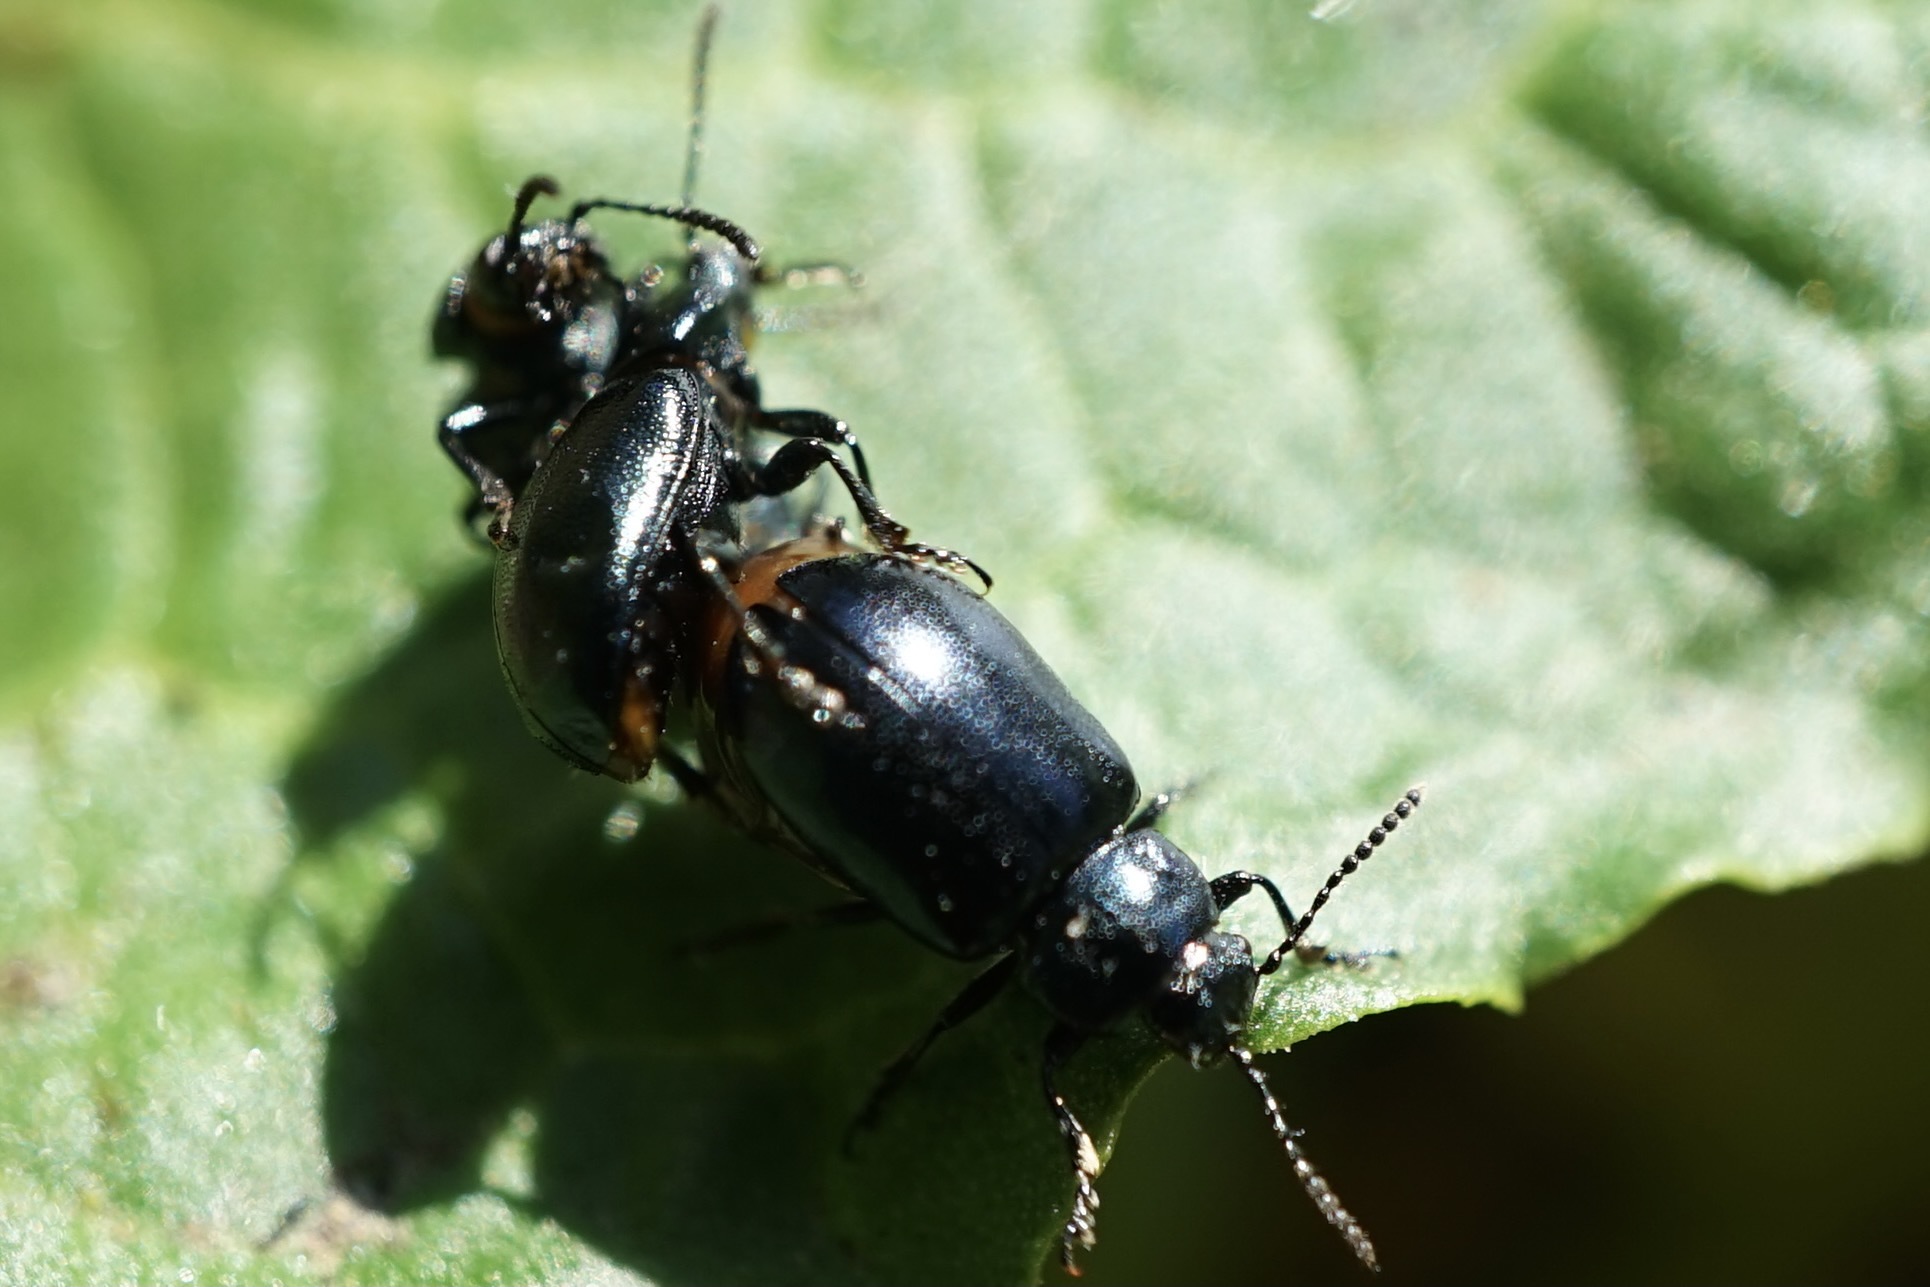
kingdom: Animalia
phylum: Arthropoda
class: Insecta
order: Coleoptera
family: Chrysomelidae
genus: Gastrophysa
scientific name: Gastrophysa atrocyanea
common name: Leaf beetle
